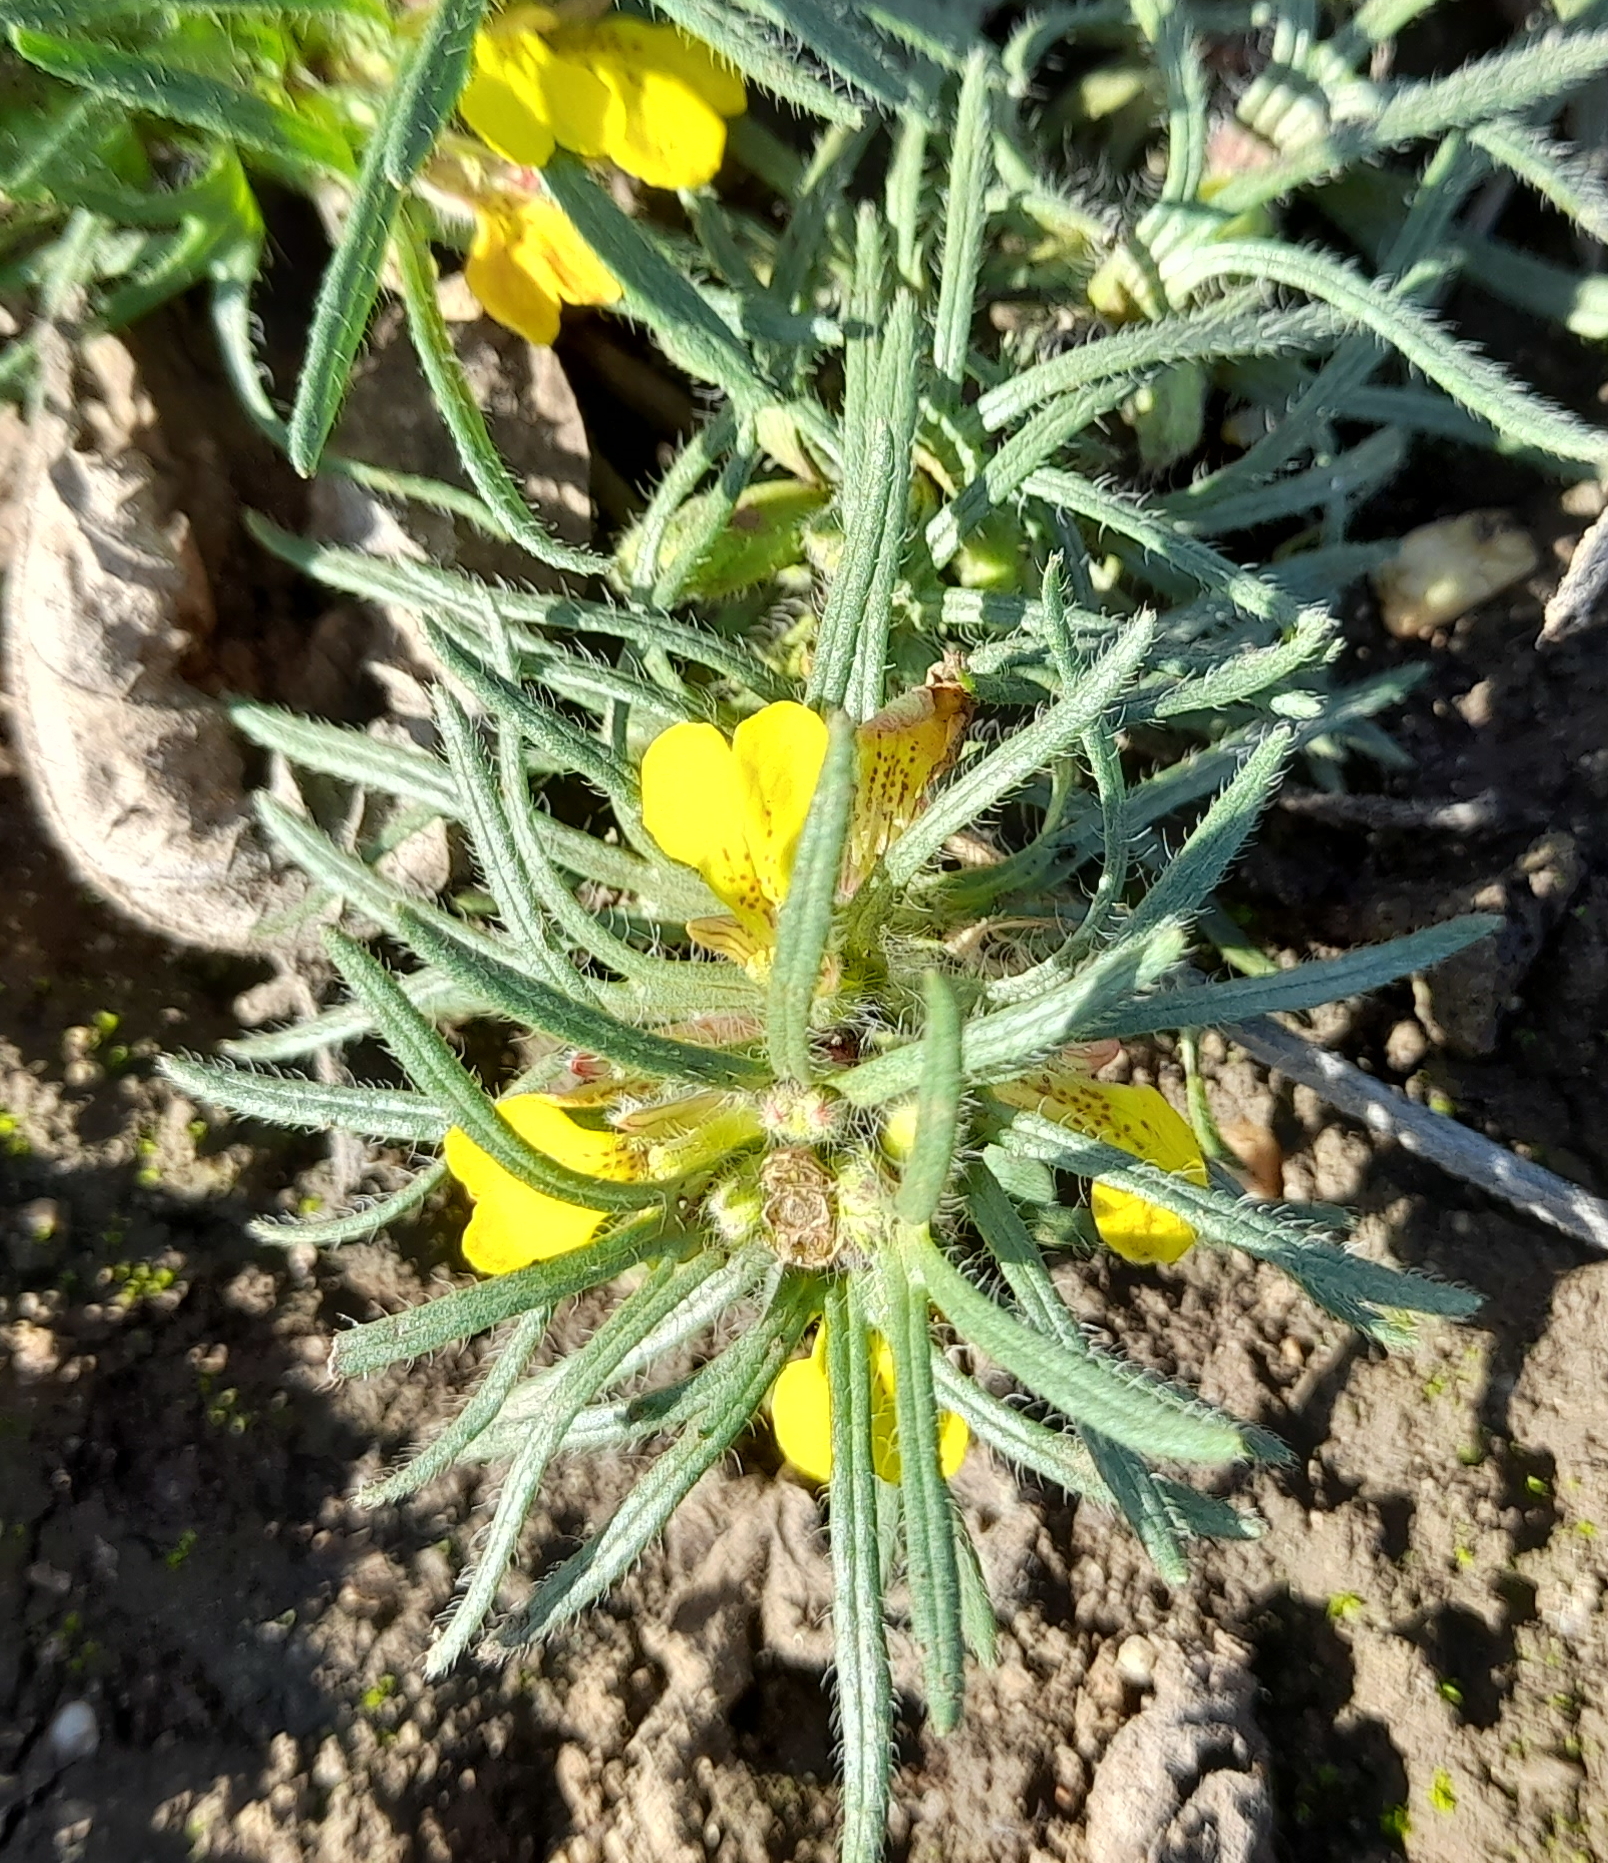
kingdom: Plantae
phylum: Tracheophyta
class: Magnoliopsida
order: Lamiales
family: Lamiaceae
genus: Ajuga
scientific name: Ajuga chamaepitys
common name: Ground-pine
